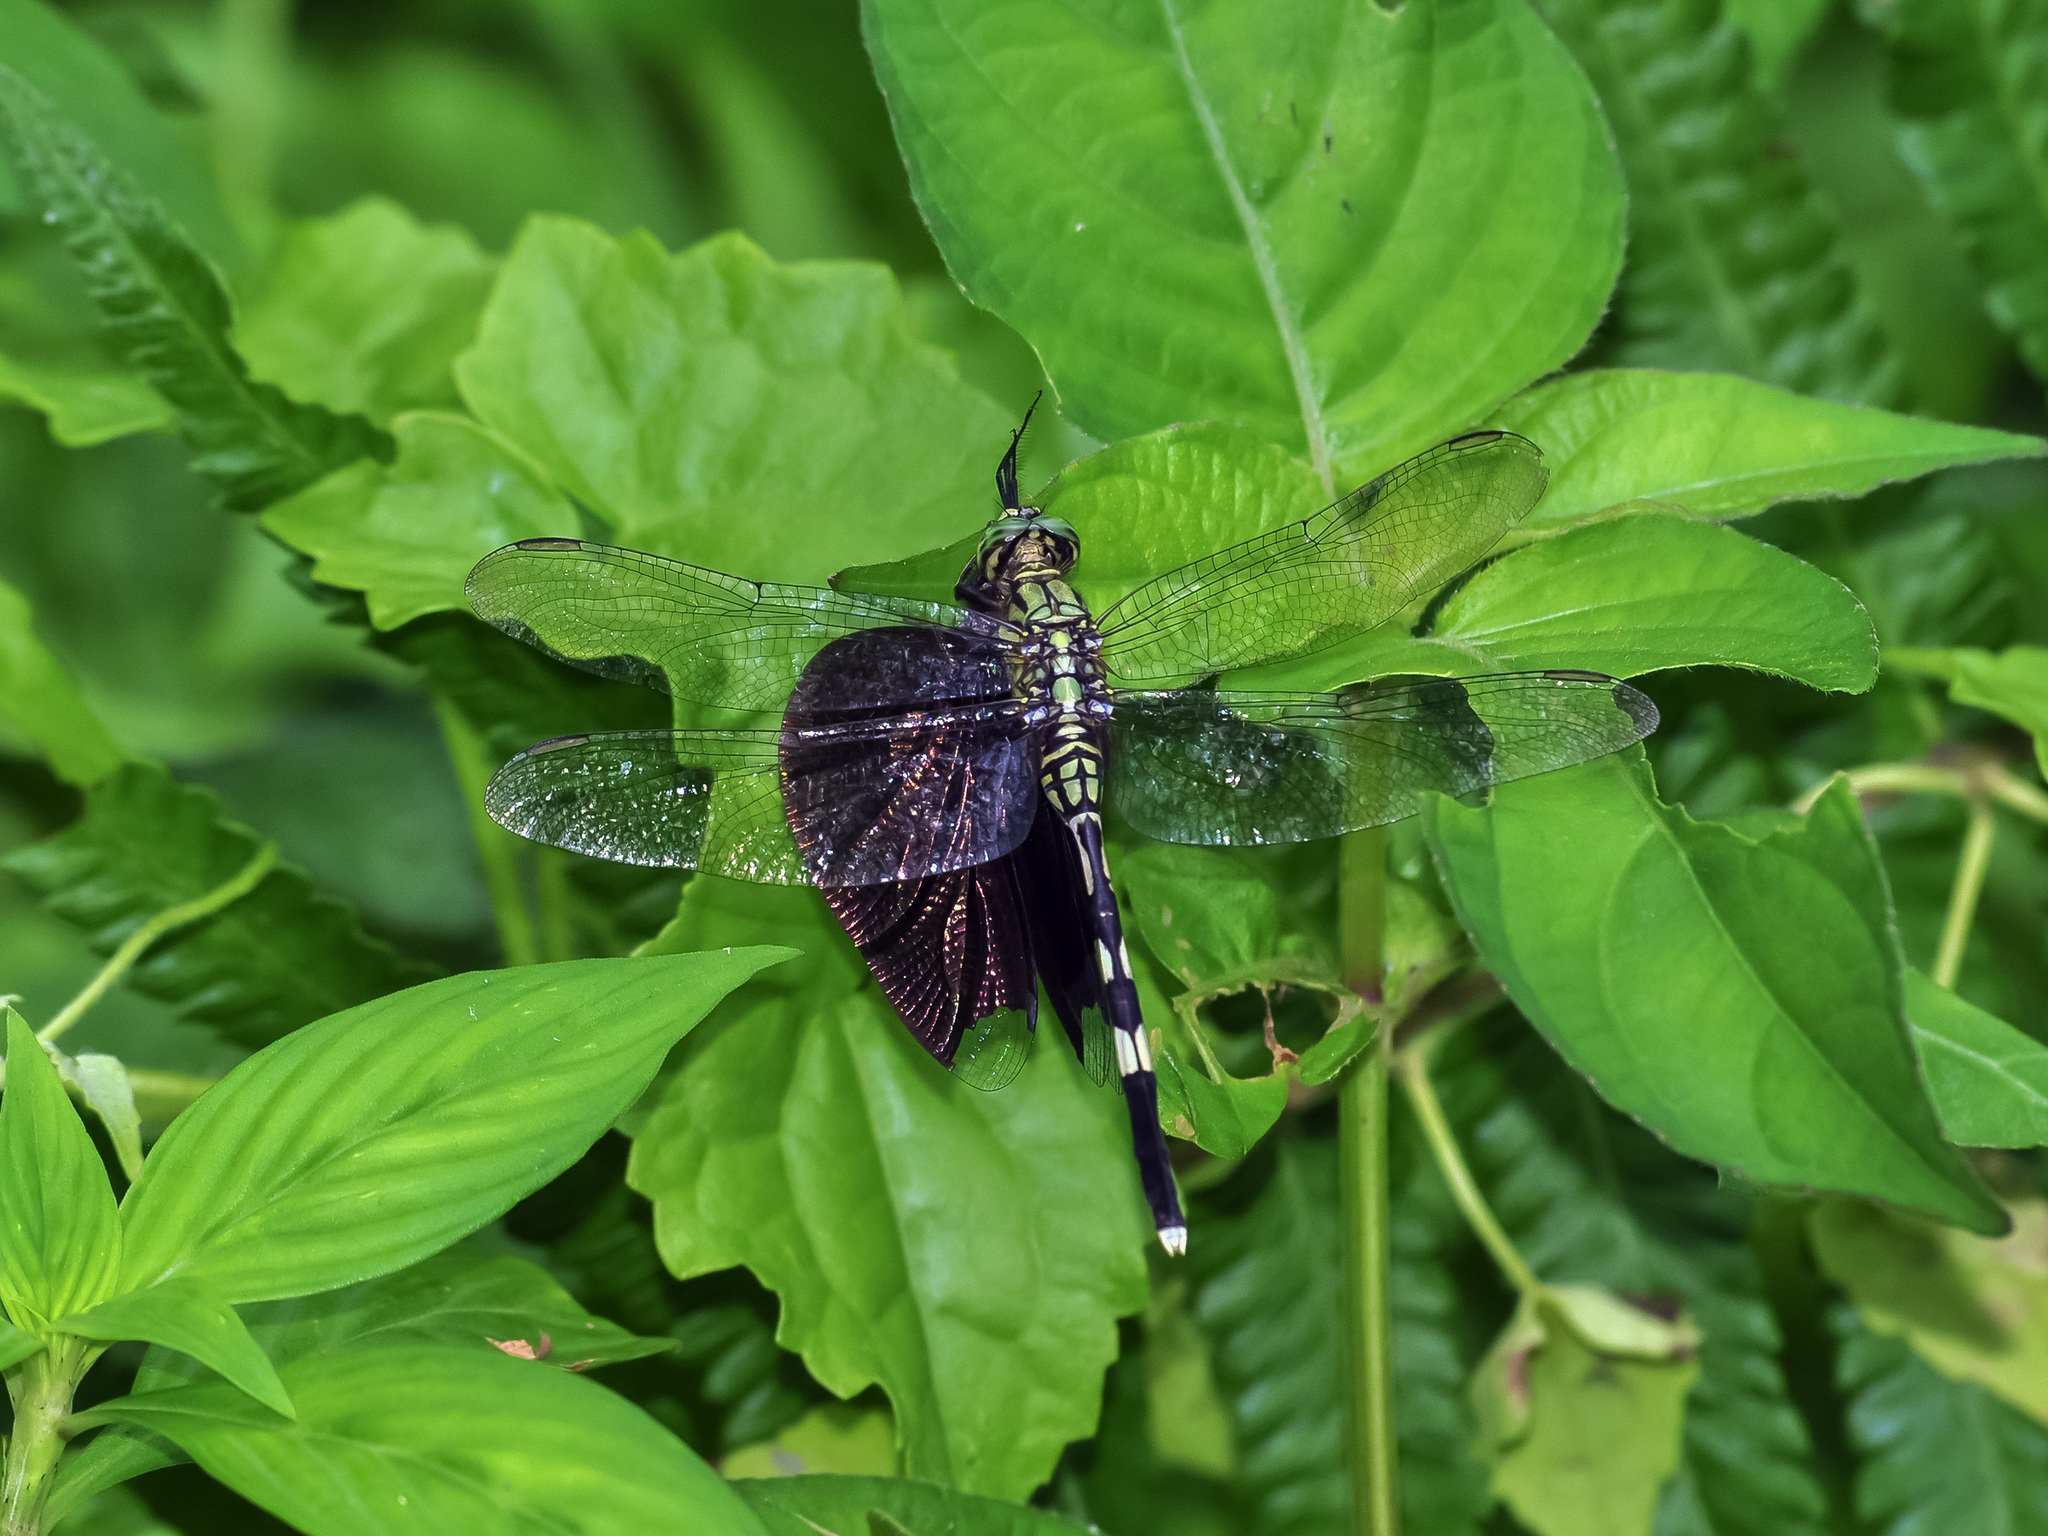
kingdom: Animalia
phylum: Arthropoda
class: Insecta
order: Odonata
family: Libellulidae
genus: Orthetrum
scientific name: Orthetrum sabina
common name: Slender skimmer
